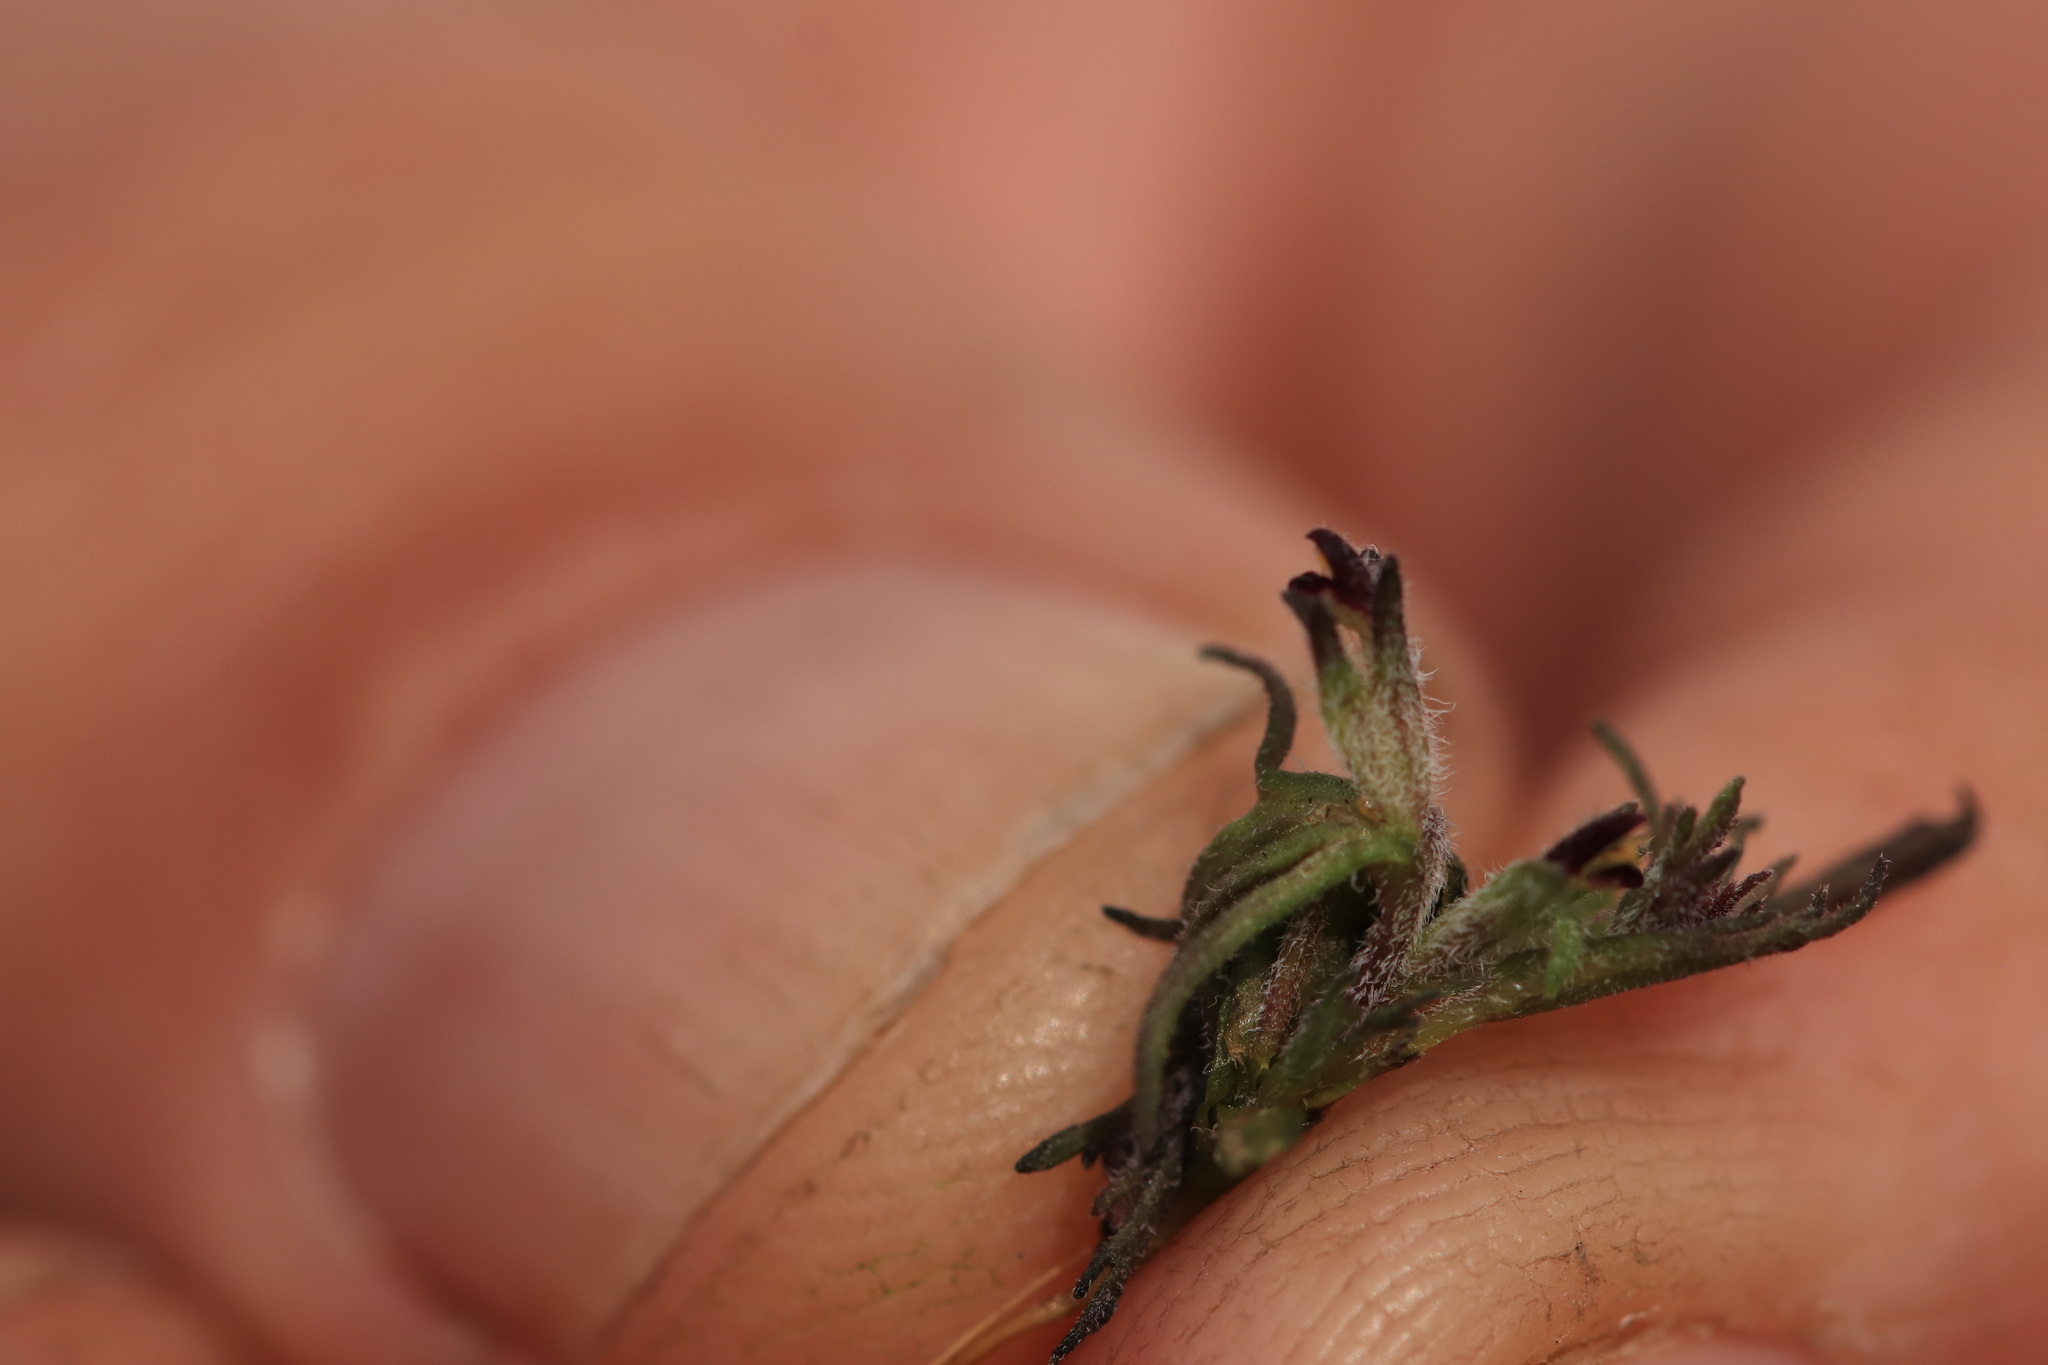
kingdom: Plantae
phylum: Tracheophyta
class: Magnoliopsida
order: Lamiales
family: Orobanchaceae
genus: Triphysaria
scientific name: Triphysaria pusilla
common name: Dwarf false owl-clover
